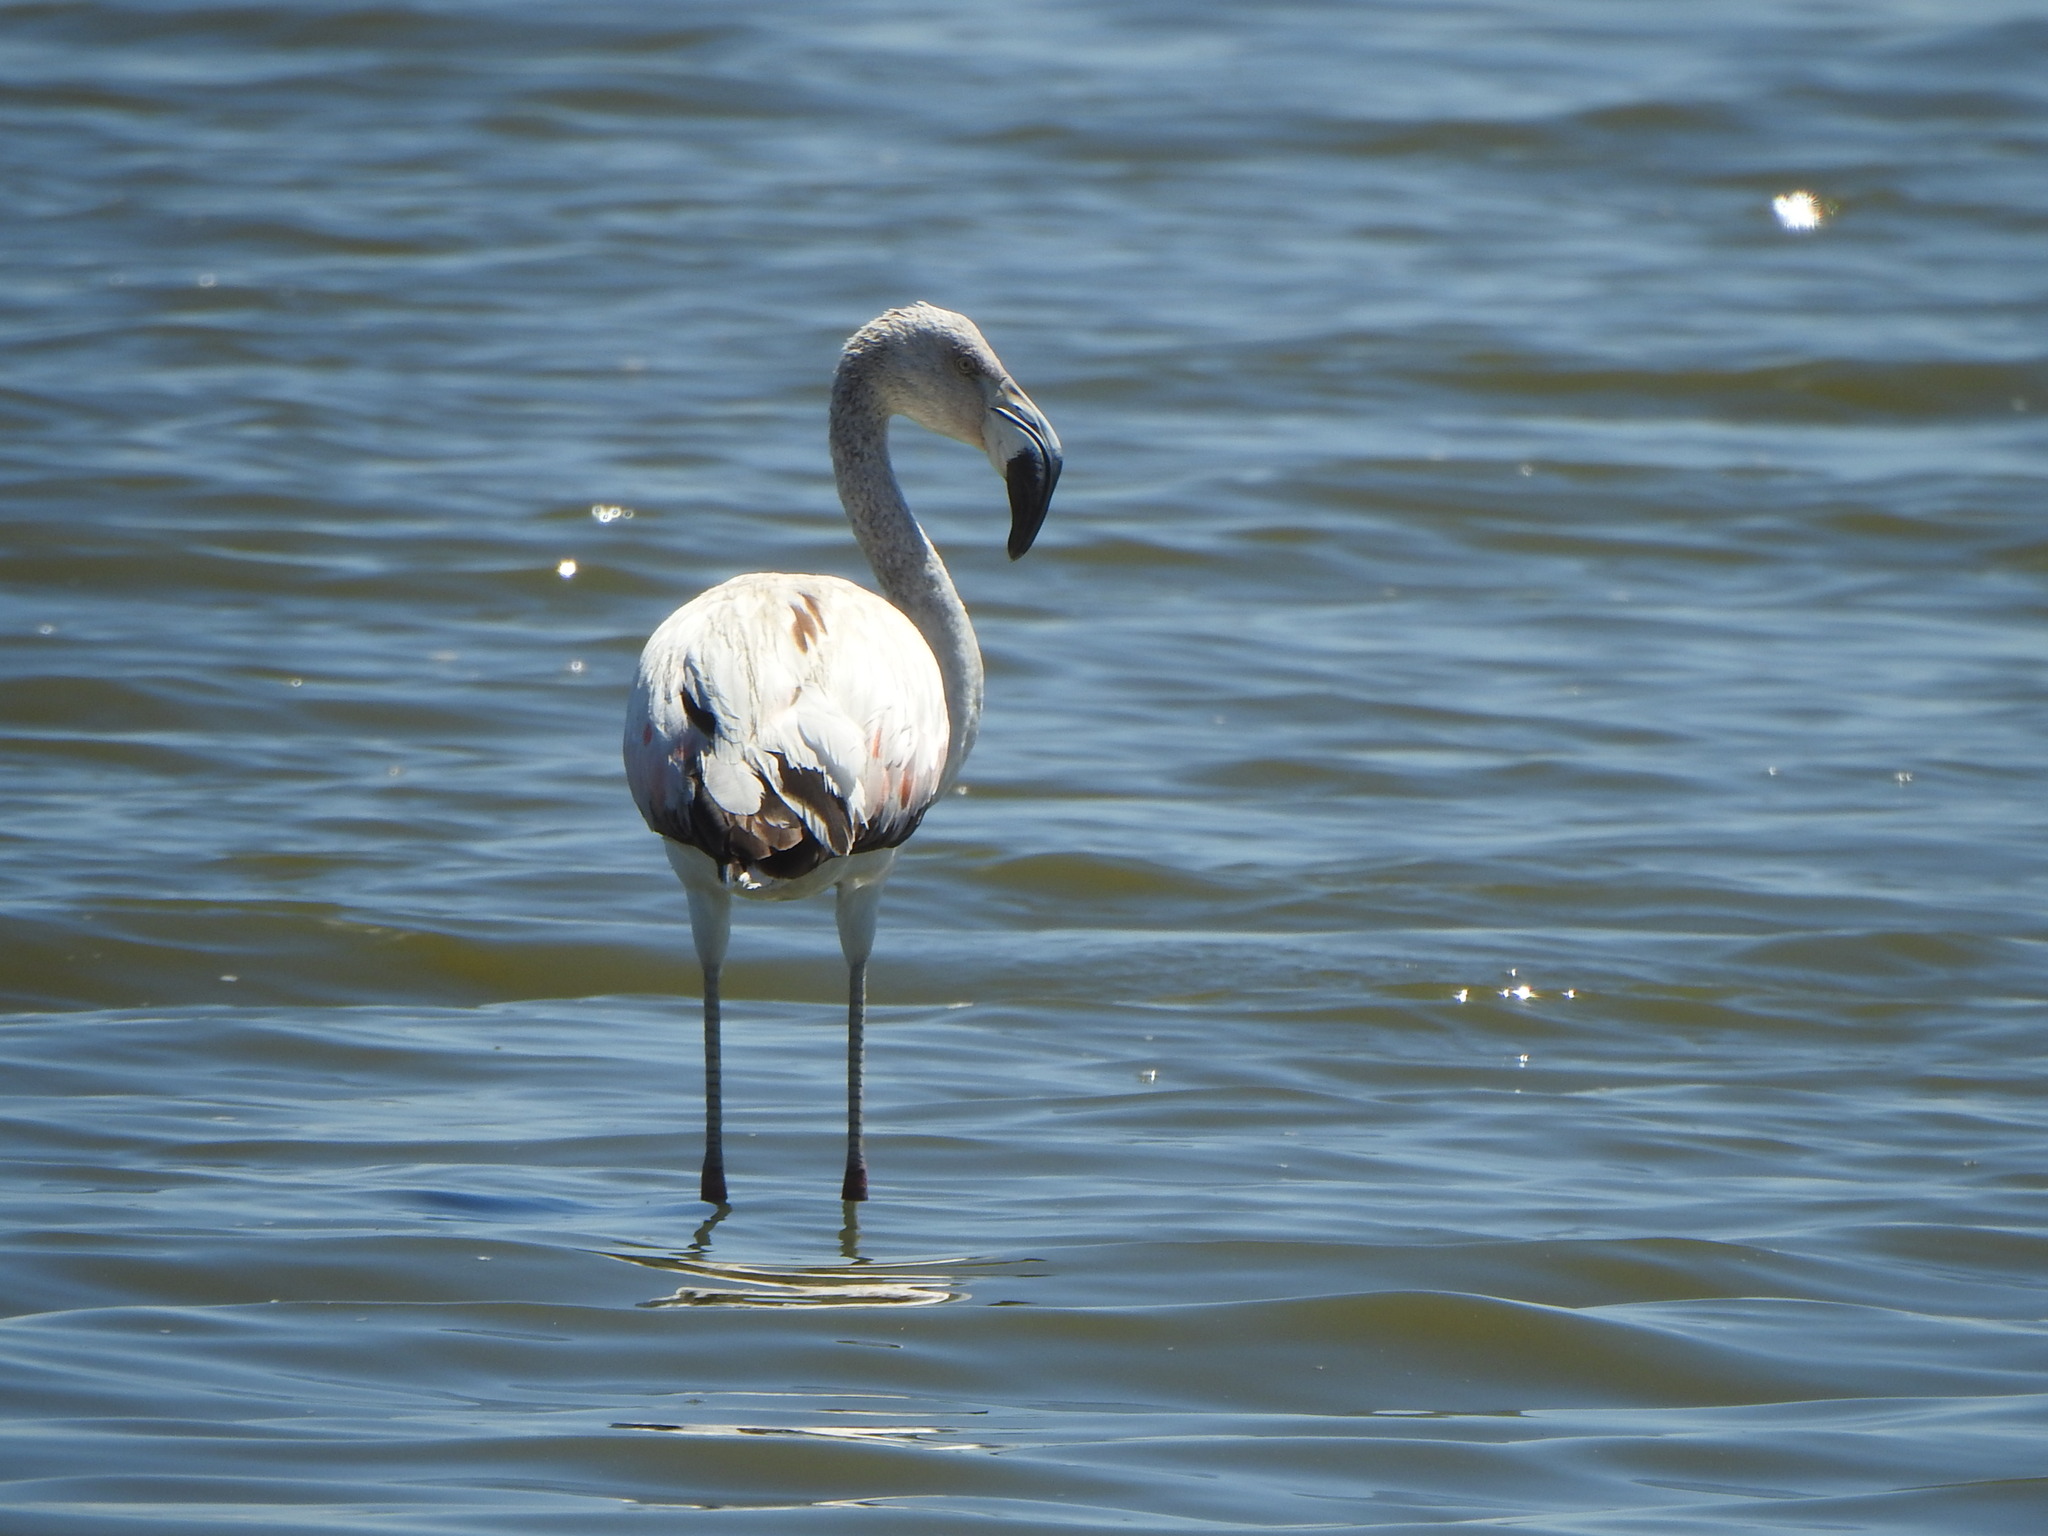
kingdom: Animalia
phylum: Chordata
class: Aves
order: Phoenicopteriformes
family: Phoenicopteridae
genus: Phoenicopterus
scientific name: Phoenicopterus chilensis
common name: Chilean flamingo
